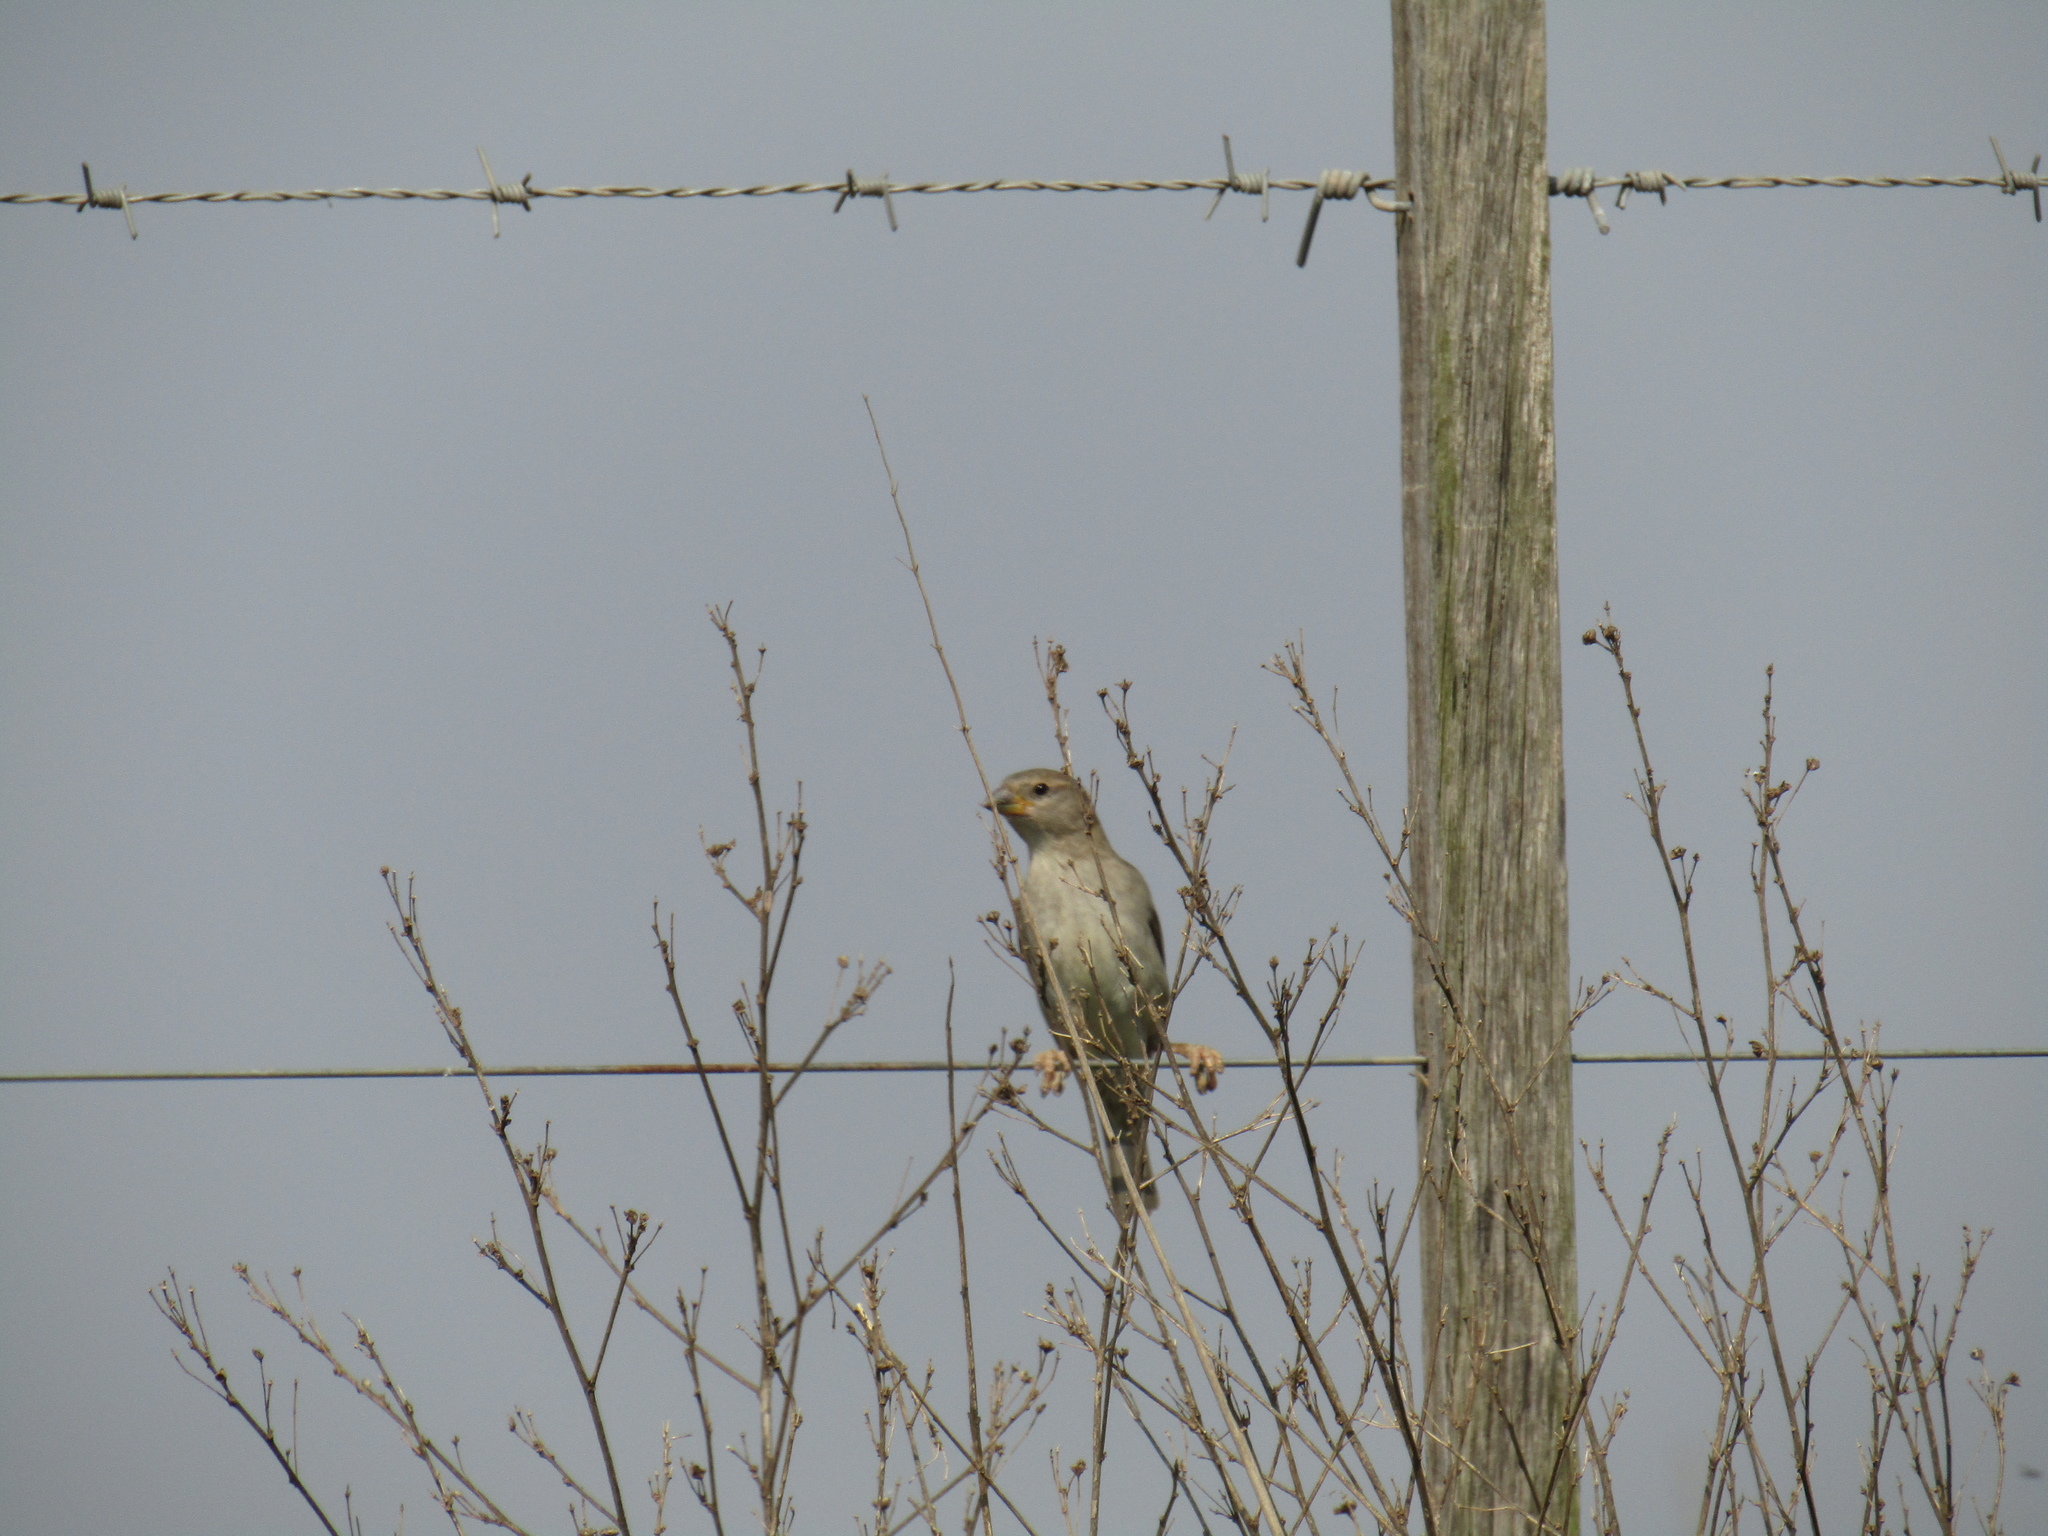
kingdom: Animalia
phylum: Chordata
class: Aves
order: Passeriformes
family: Passeridae
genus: Passer
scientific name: Passer domesticus
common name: House sparrow
